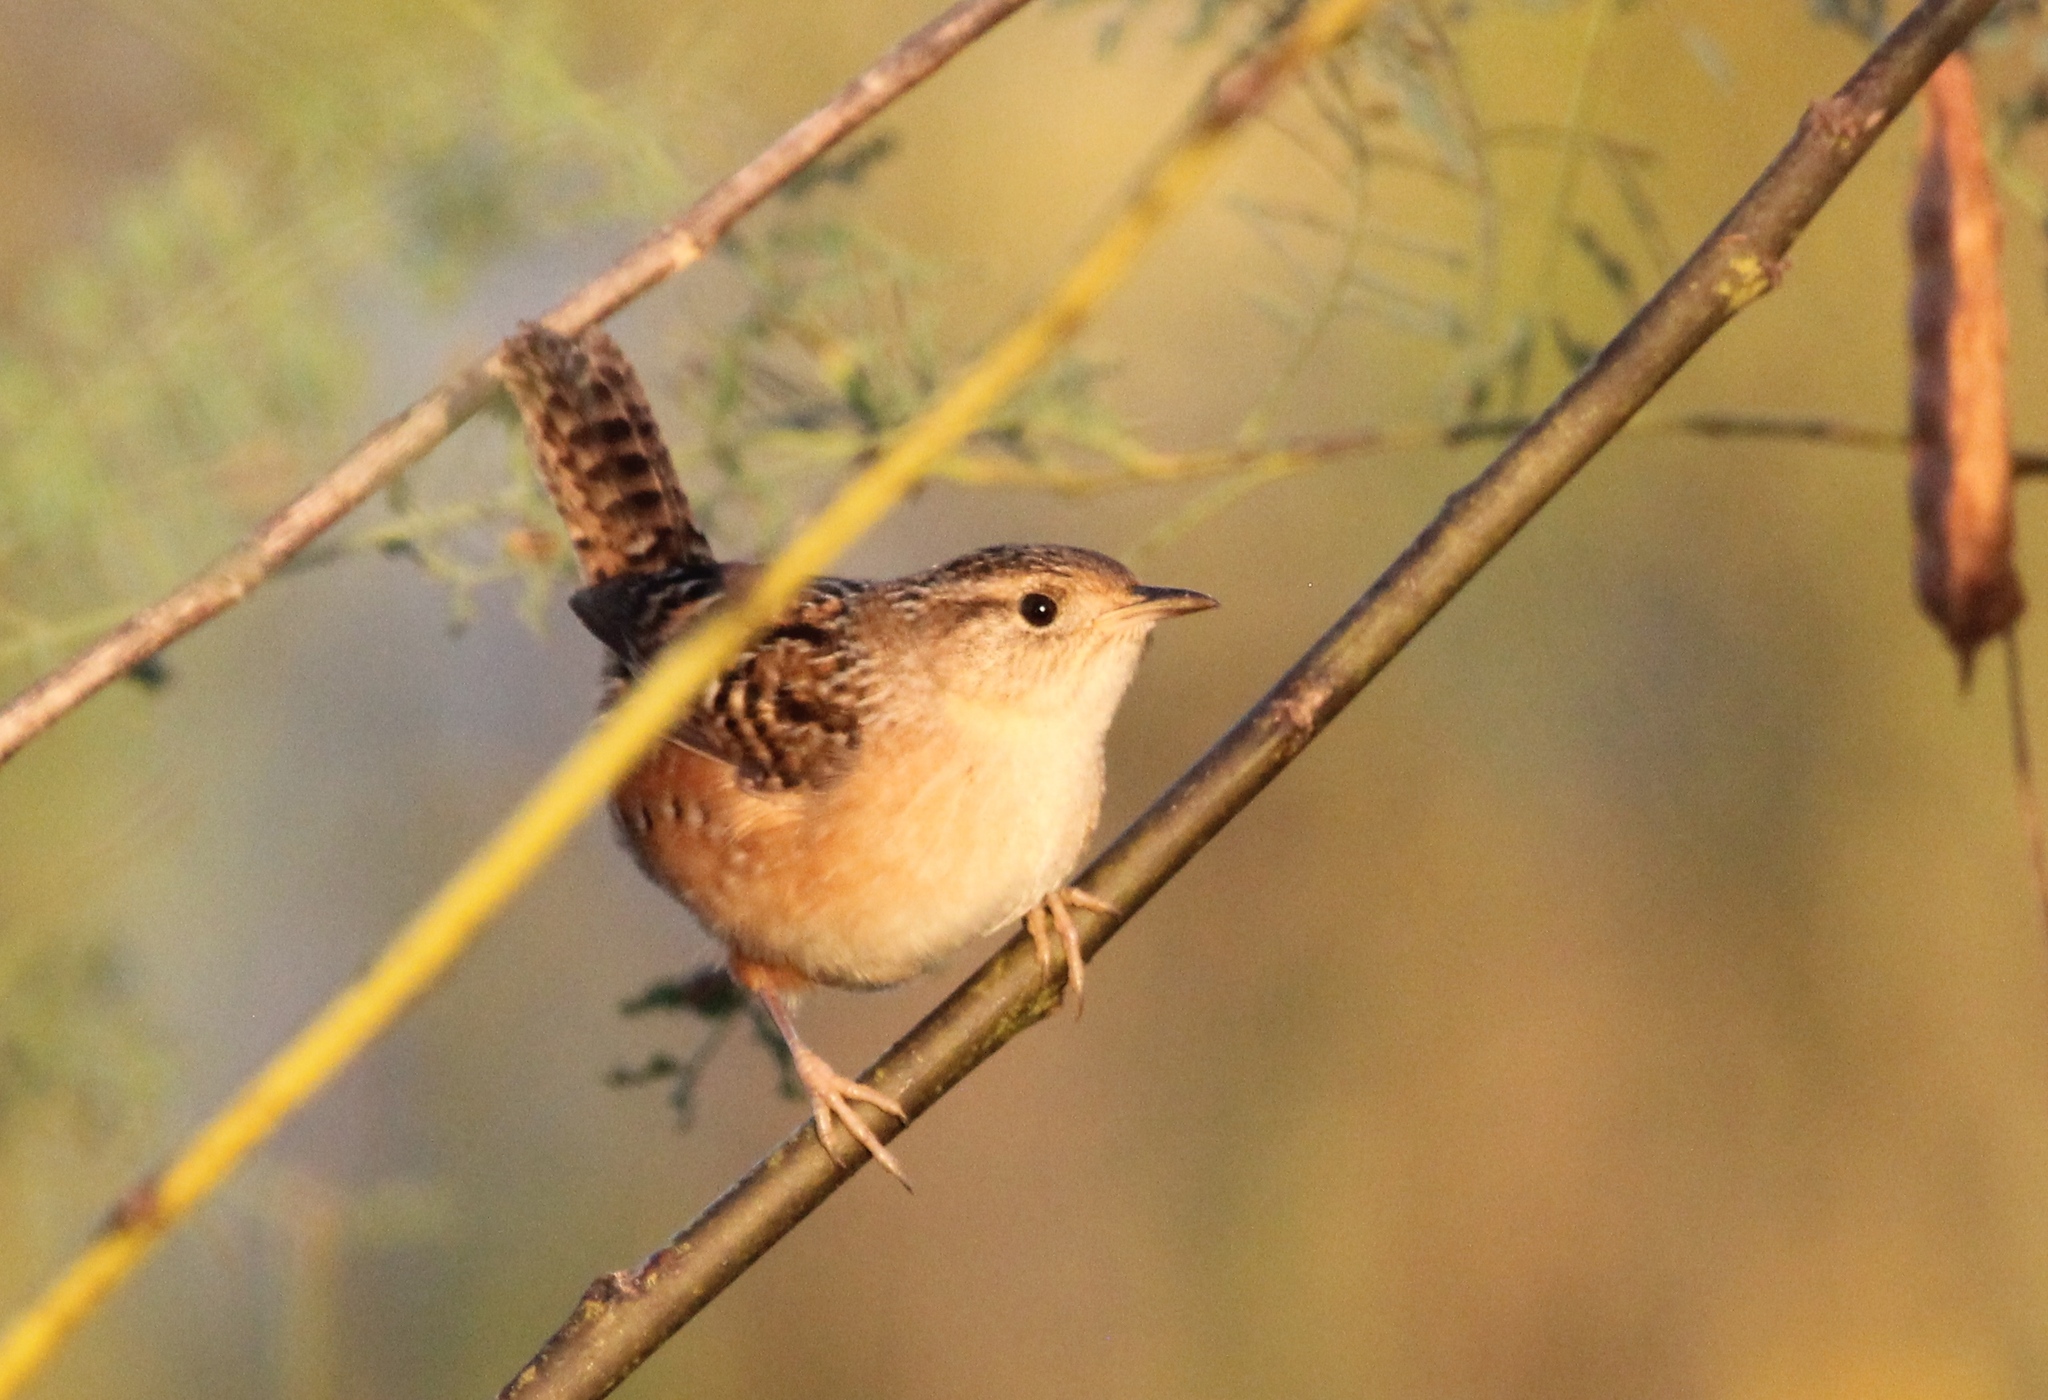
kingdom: Animalia
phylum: Chordata
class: Aves
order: Passeriformes
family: Troglodytidae
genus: Cistothorus
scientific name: Cistothorus platensis
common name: Sedge wren
